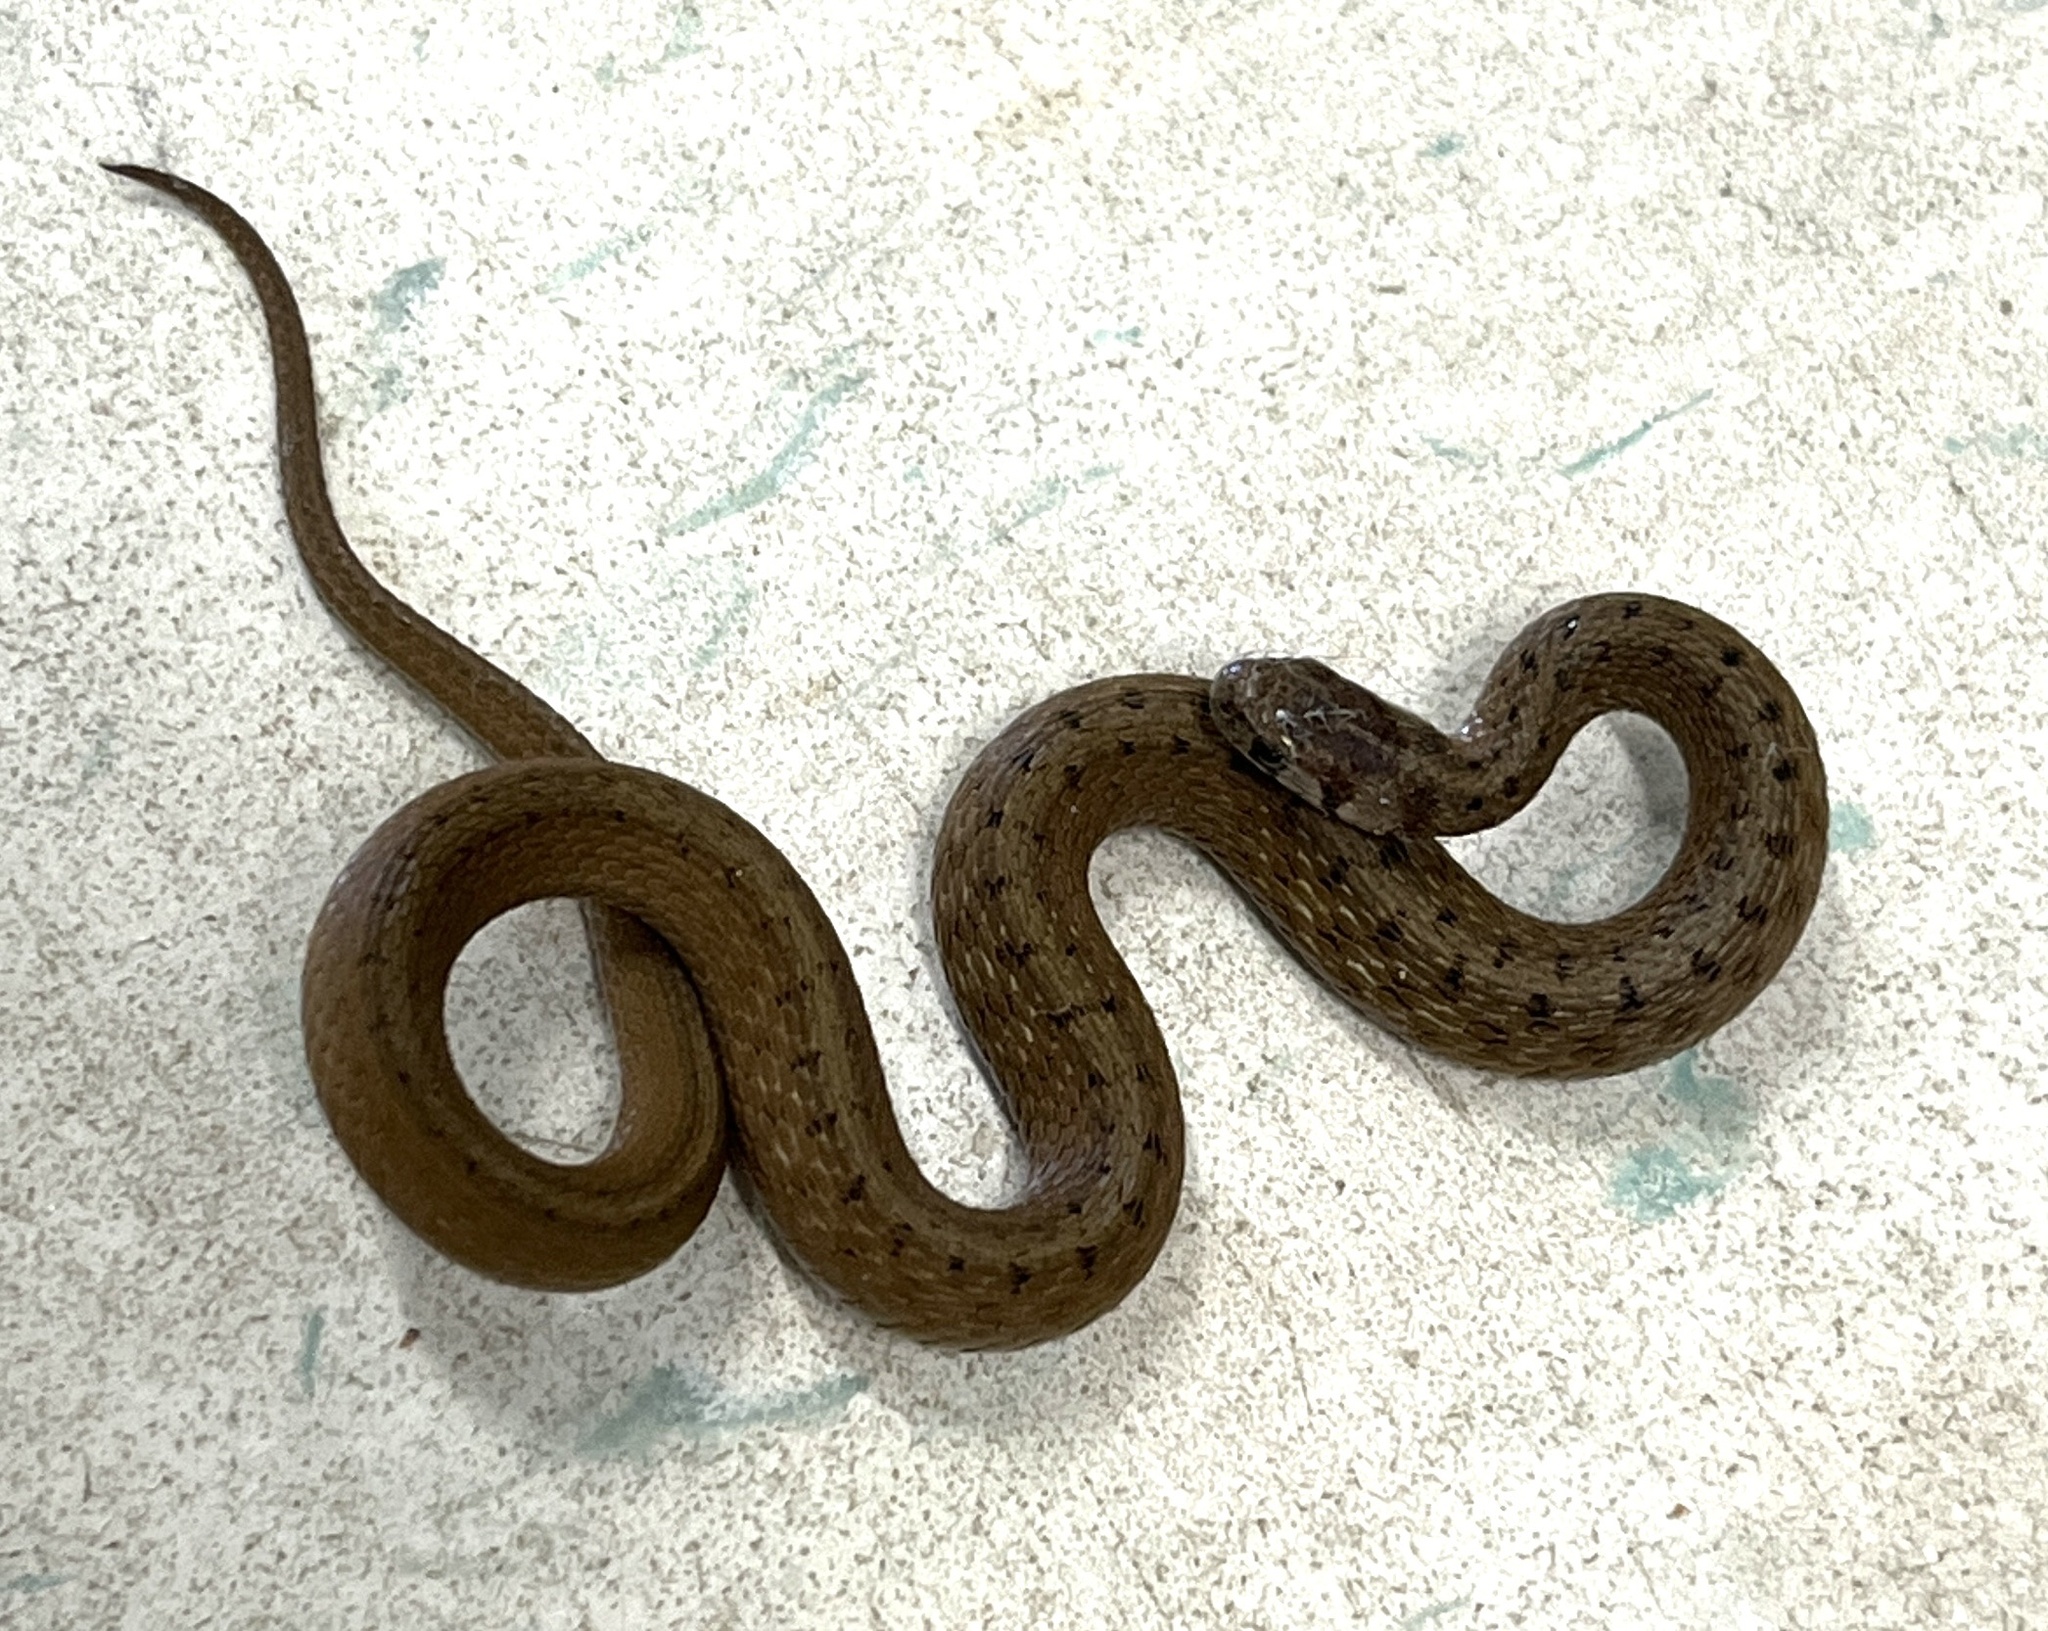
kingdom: Animalia
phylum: Chordata
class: Squamata
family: Colubridae
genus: Storeria
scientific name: Storeria dekayi
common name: (dekay’s) brown snake
